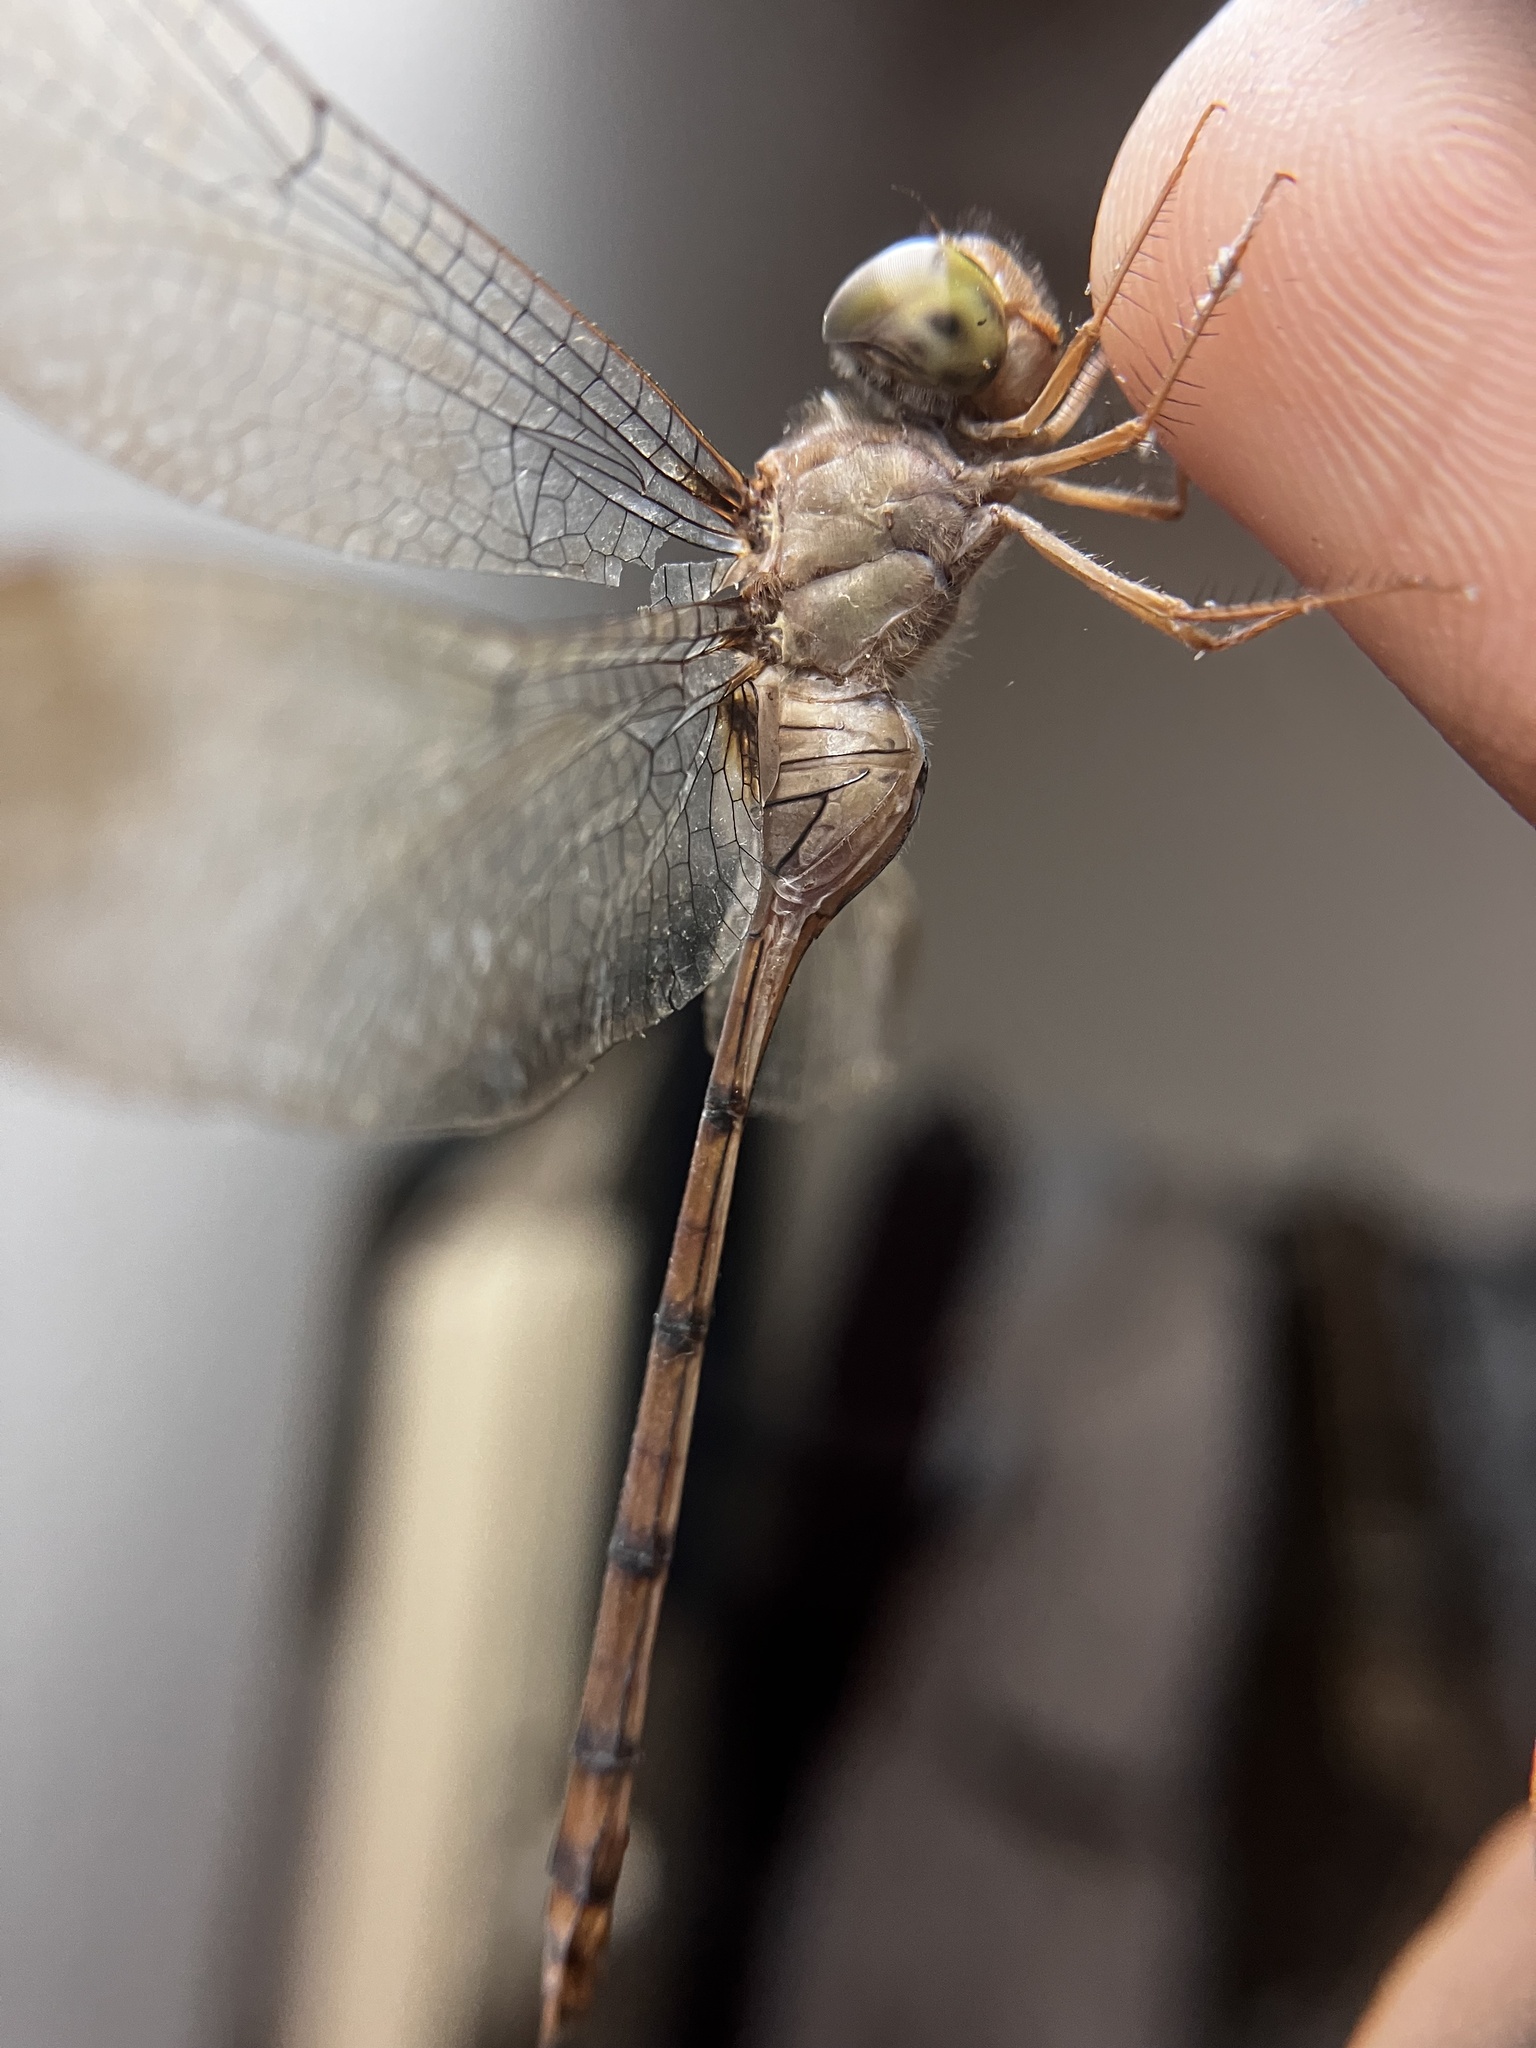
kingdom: Animalia
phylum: Arthropoda
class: Insecta
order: Odonata
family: Libellulidae
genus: Zyxomma
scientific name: Zyxomma petiolatum
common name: Dingy dusk-darter
